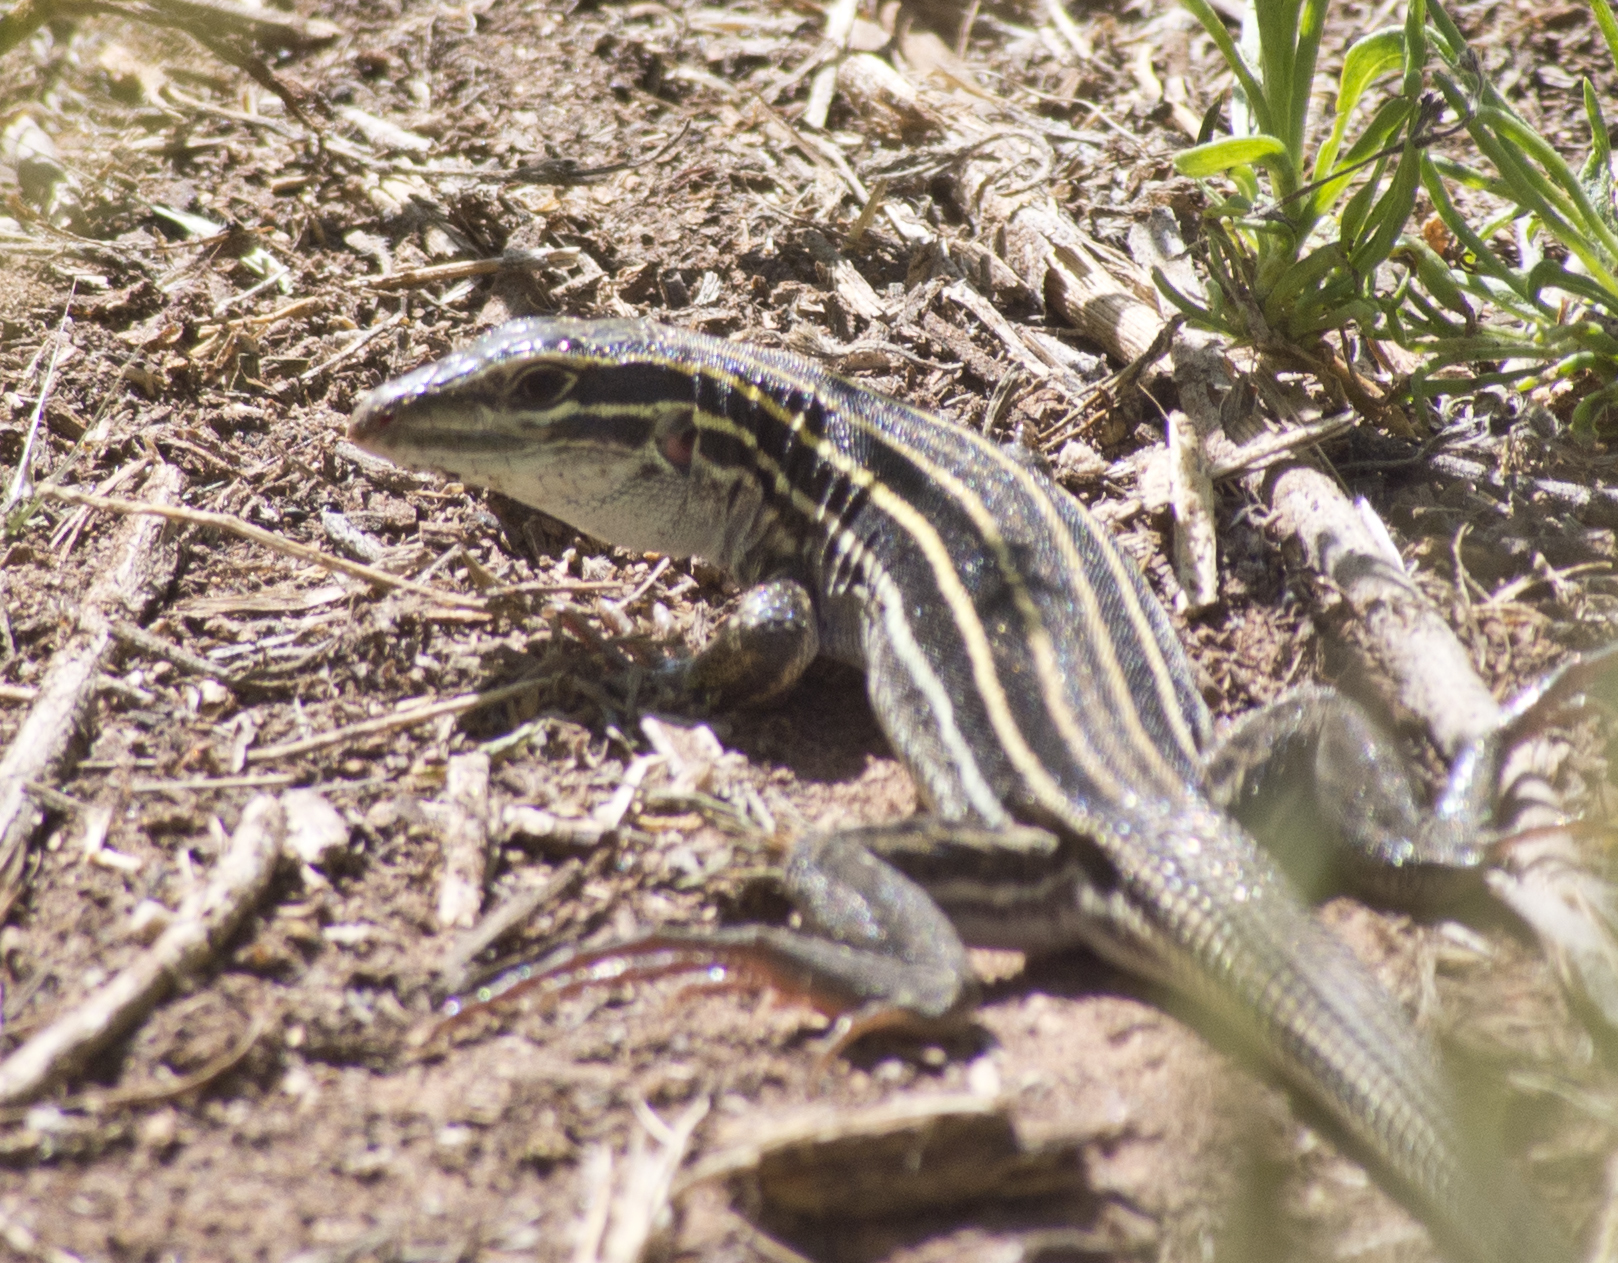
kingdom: Animalia
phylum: Chordata
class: Squamata
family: Teiidae
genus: Aspidoscelis
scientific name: Aspidoscelis velox
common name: Plateau striped whiptail
